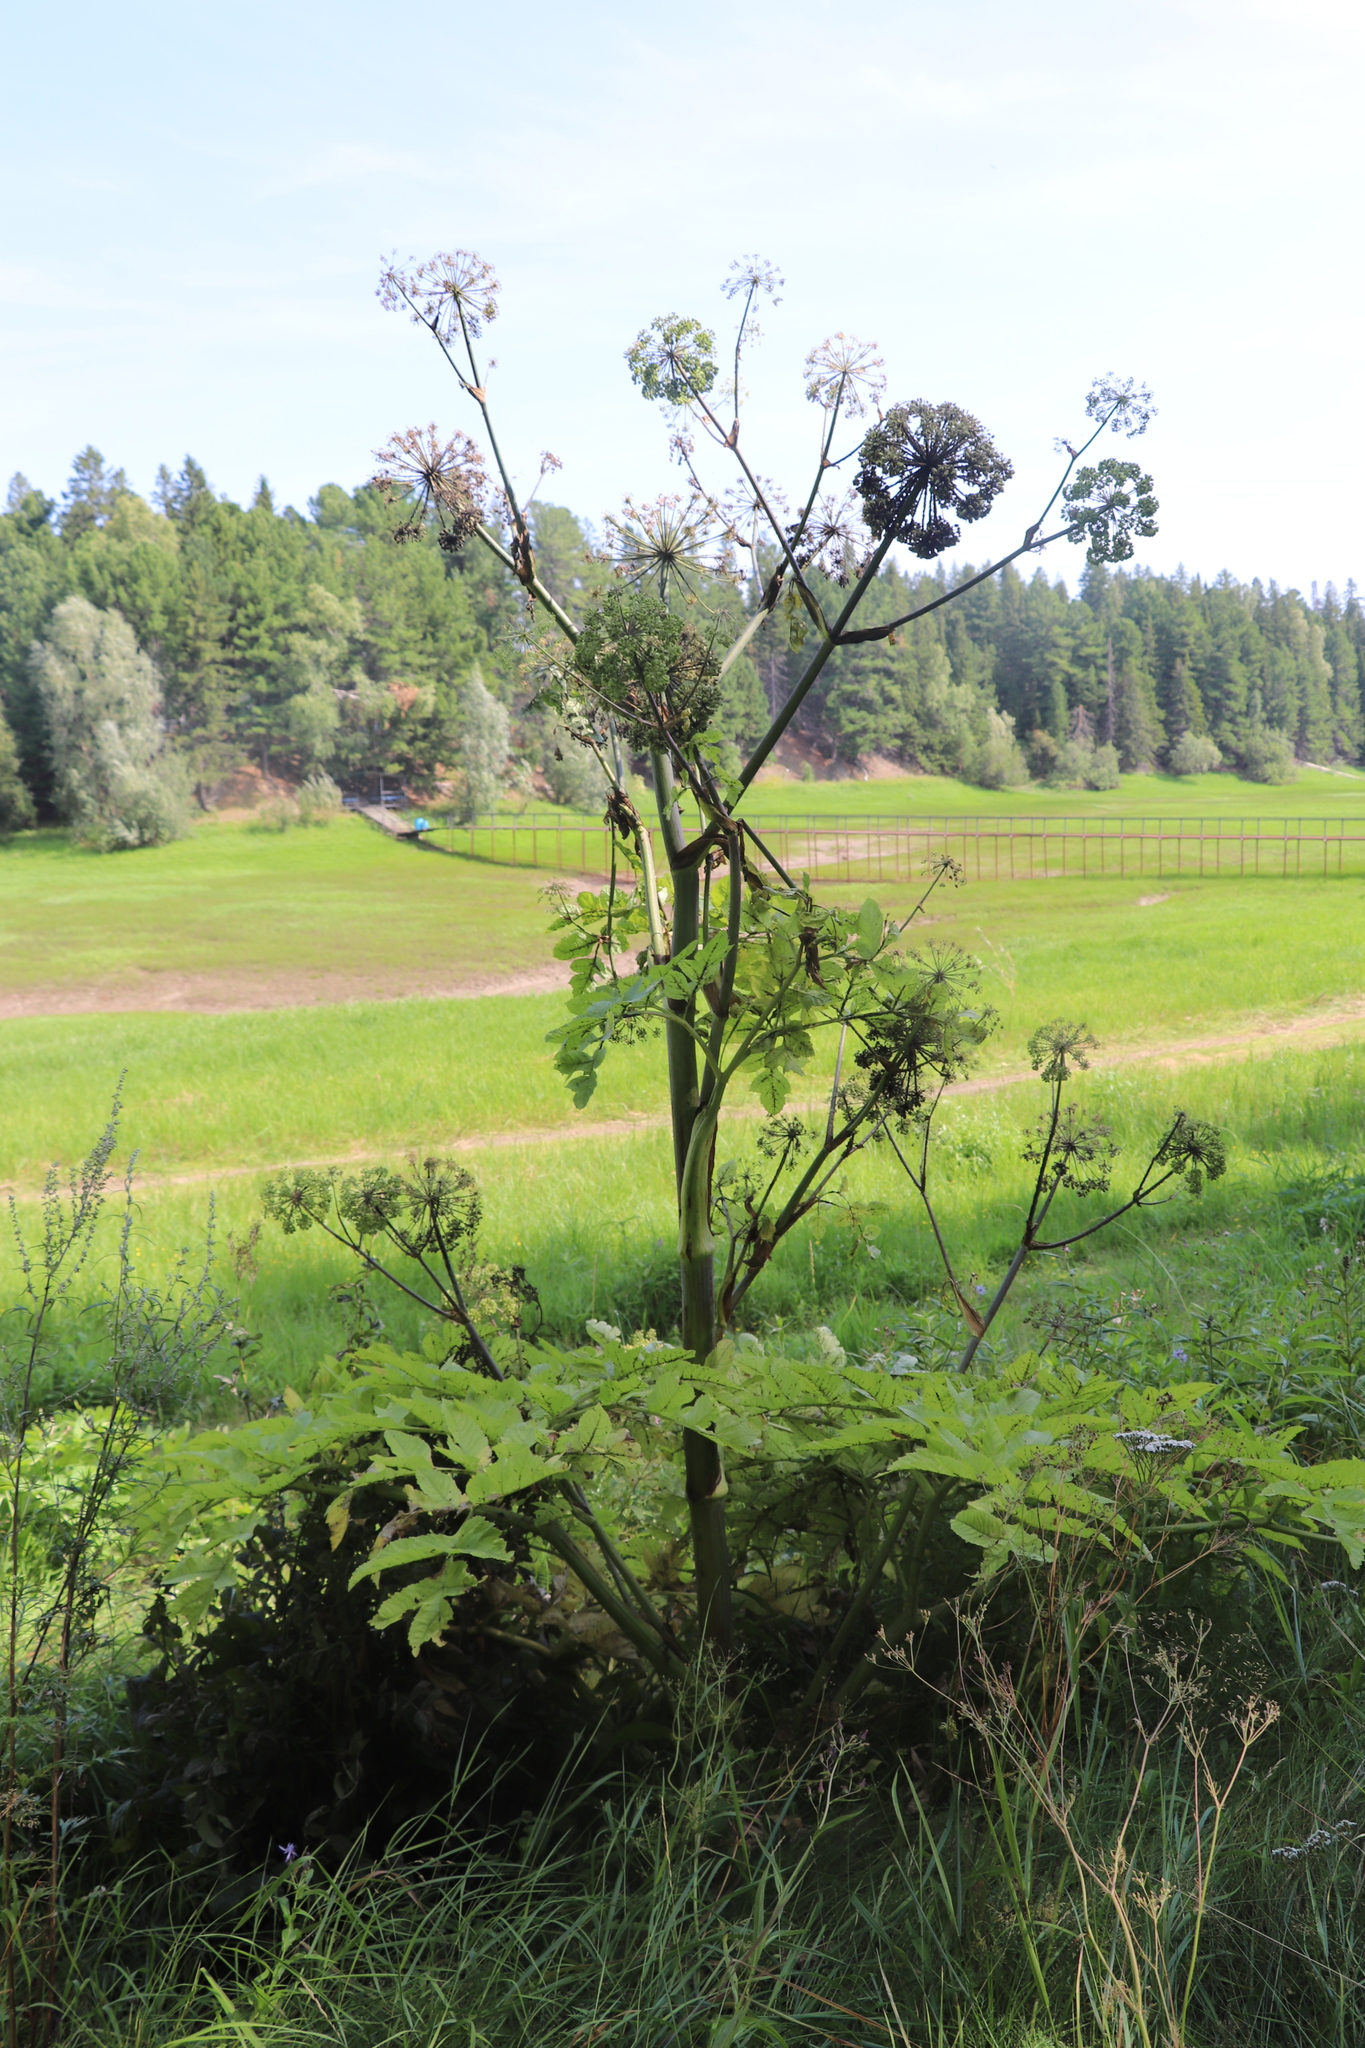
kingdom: Plantae
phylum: Tracheophyta
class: Magnoliopsida
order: Apiales
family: Apiaceae
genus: Angelica
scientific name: Angelica decurrens
